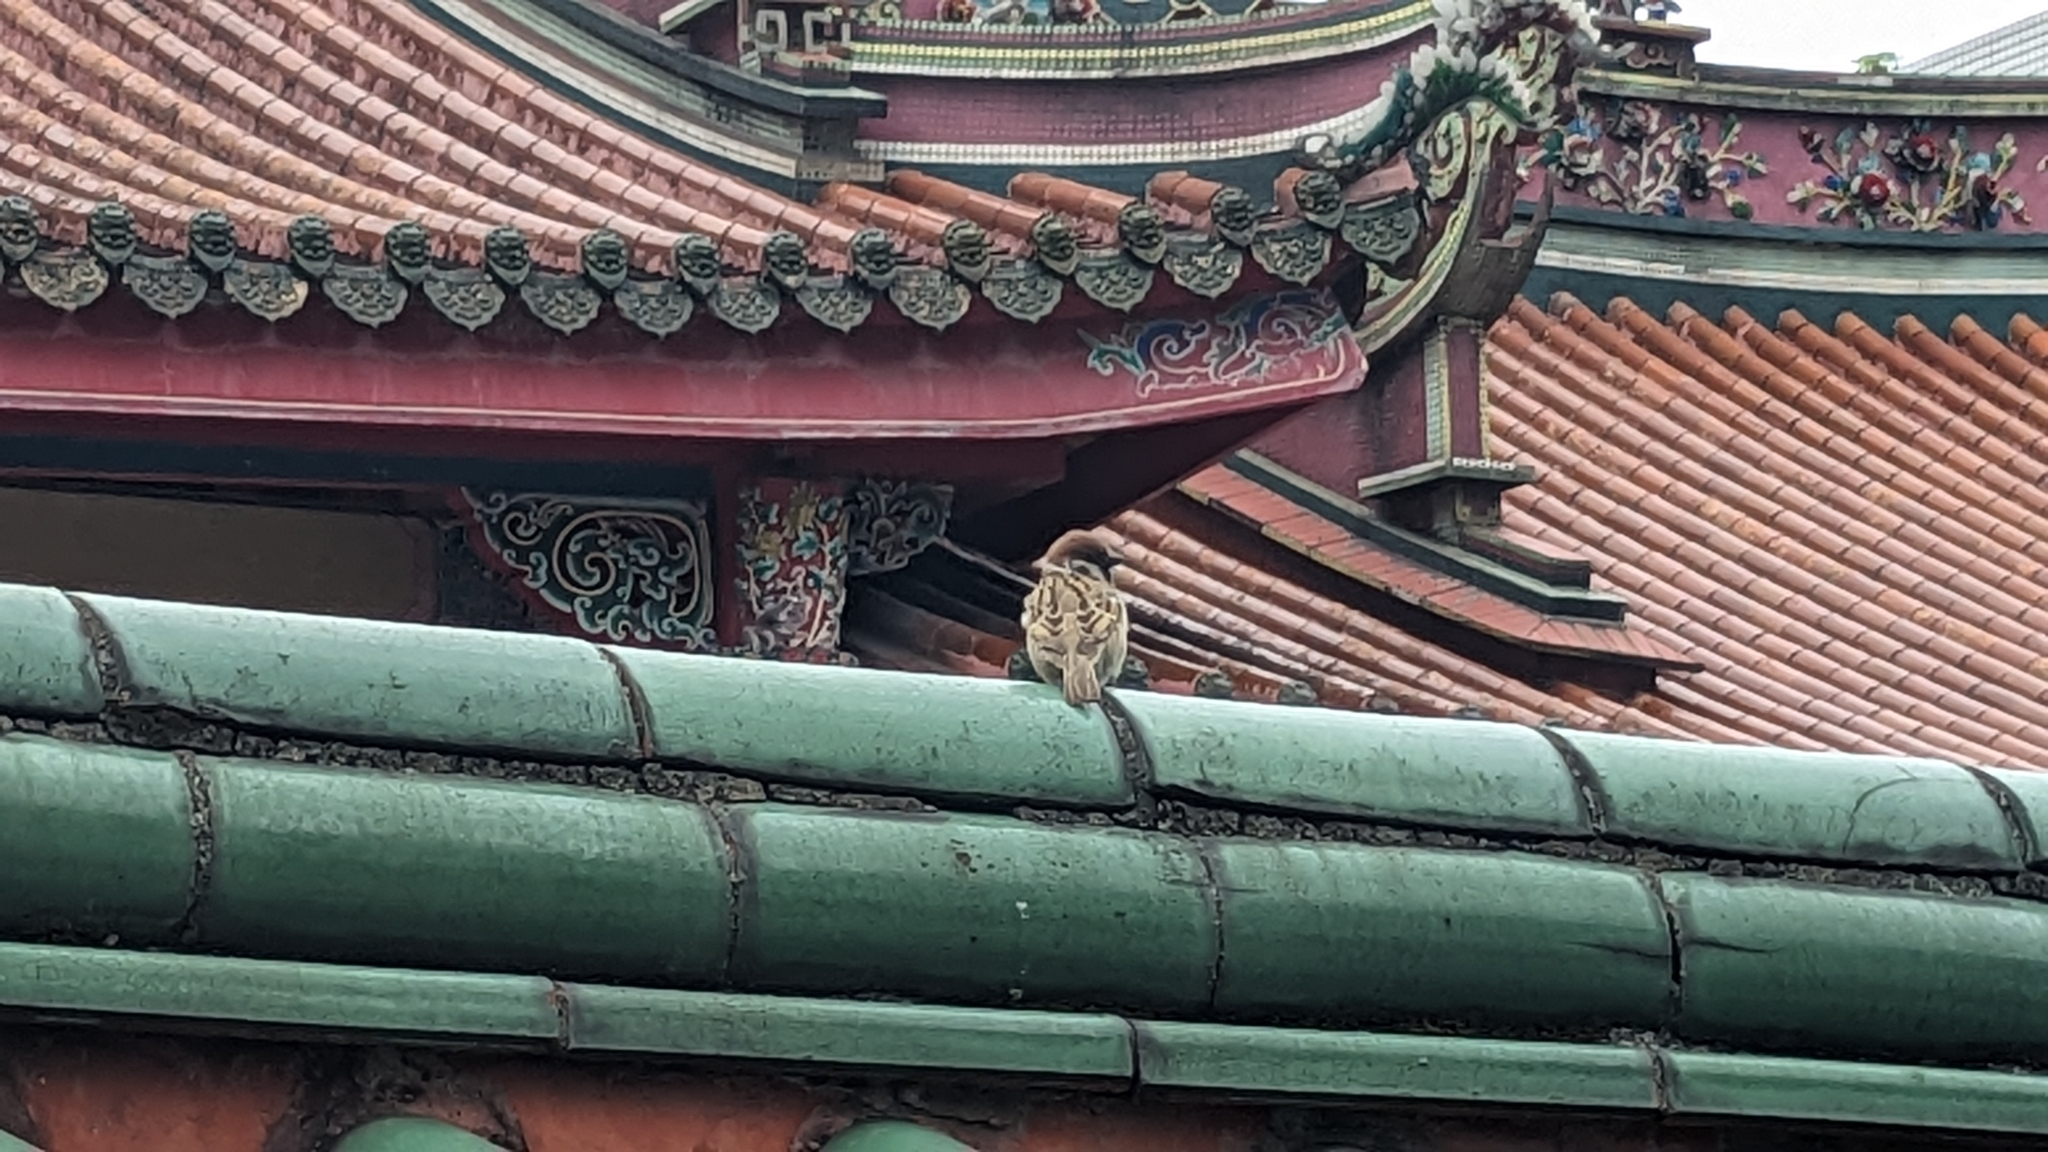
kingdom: Animalia
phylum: Chordata
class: Aves
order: Passeriformes
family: Passeridae
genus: Passer
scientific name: Passer montanus
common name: Eurasian tree sparrow
